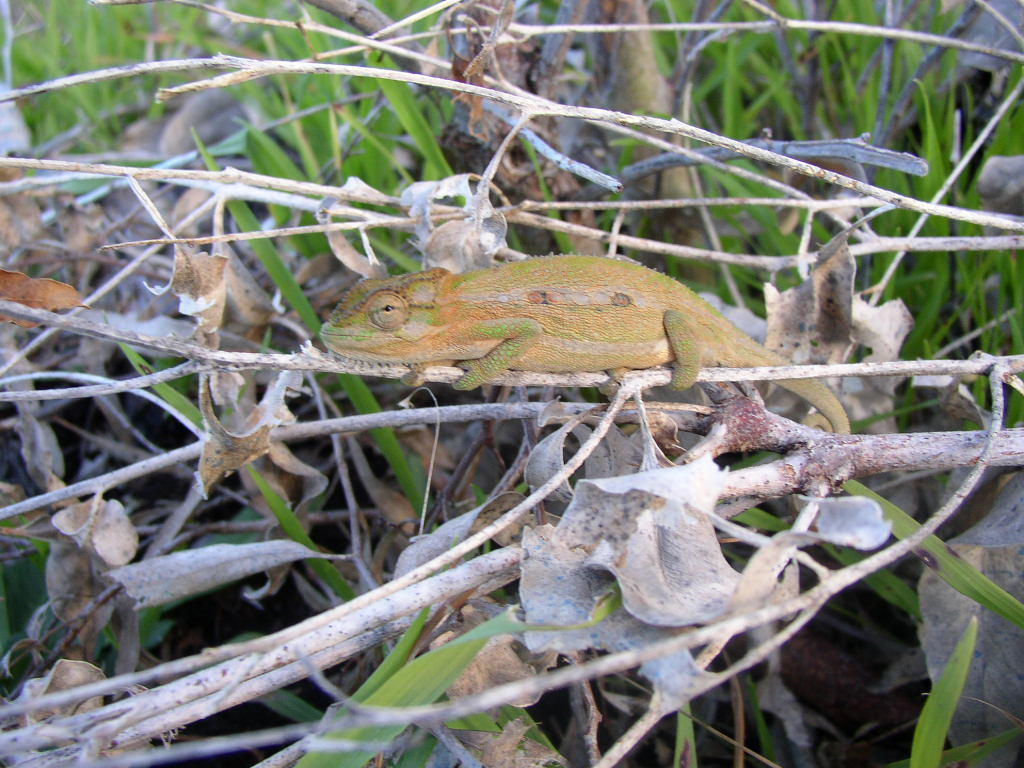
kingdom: Animalia
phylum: Chordata
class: Squamata
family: Chamaeleonidae
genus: Bradypodion
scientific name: Bradypodion pumilum
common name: Cape dwarf chameleon
